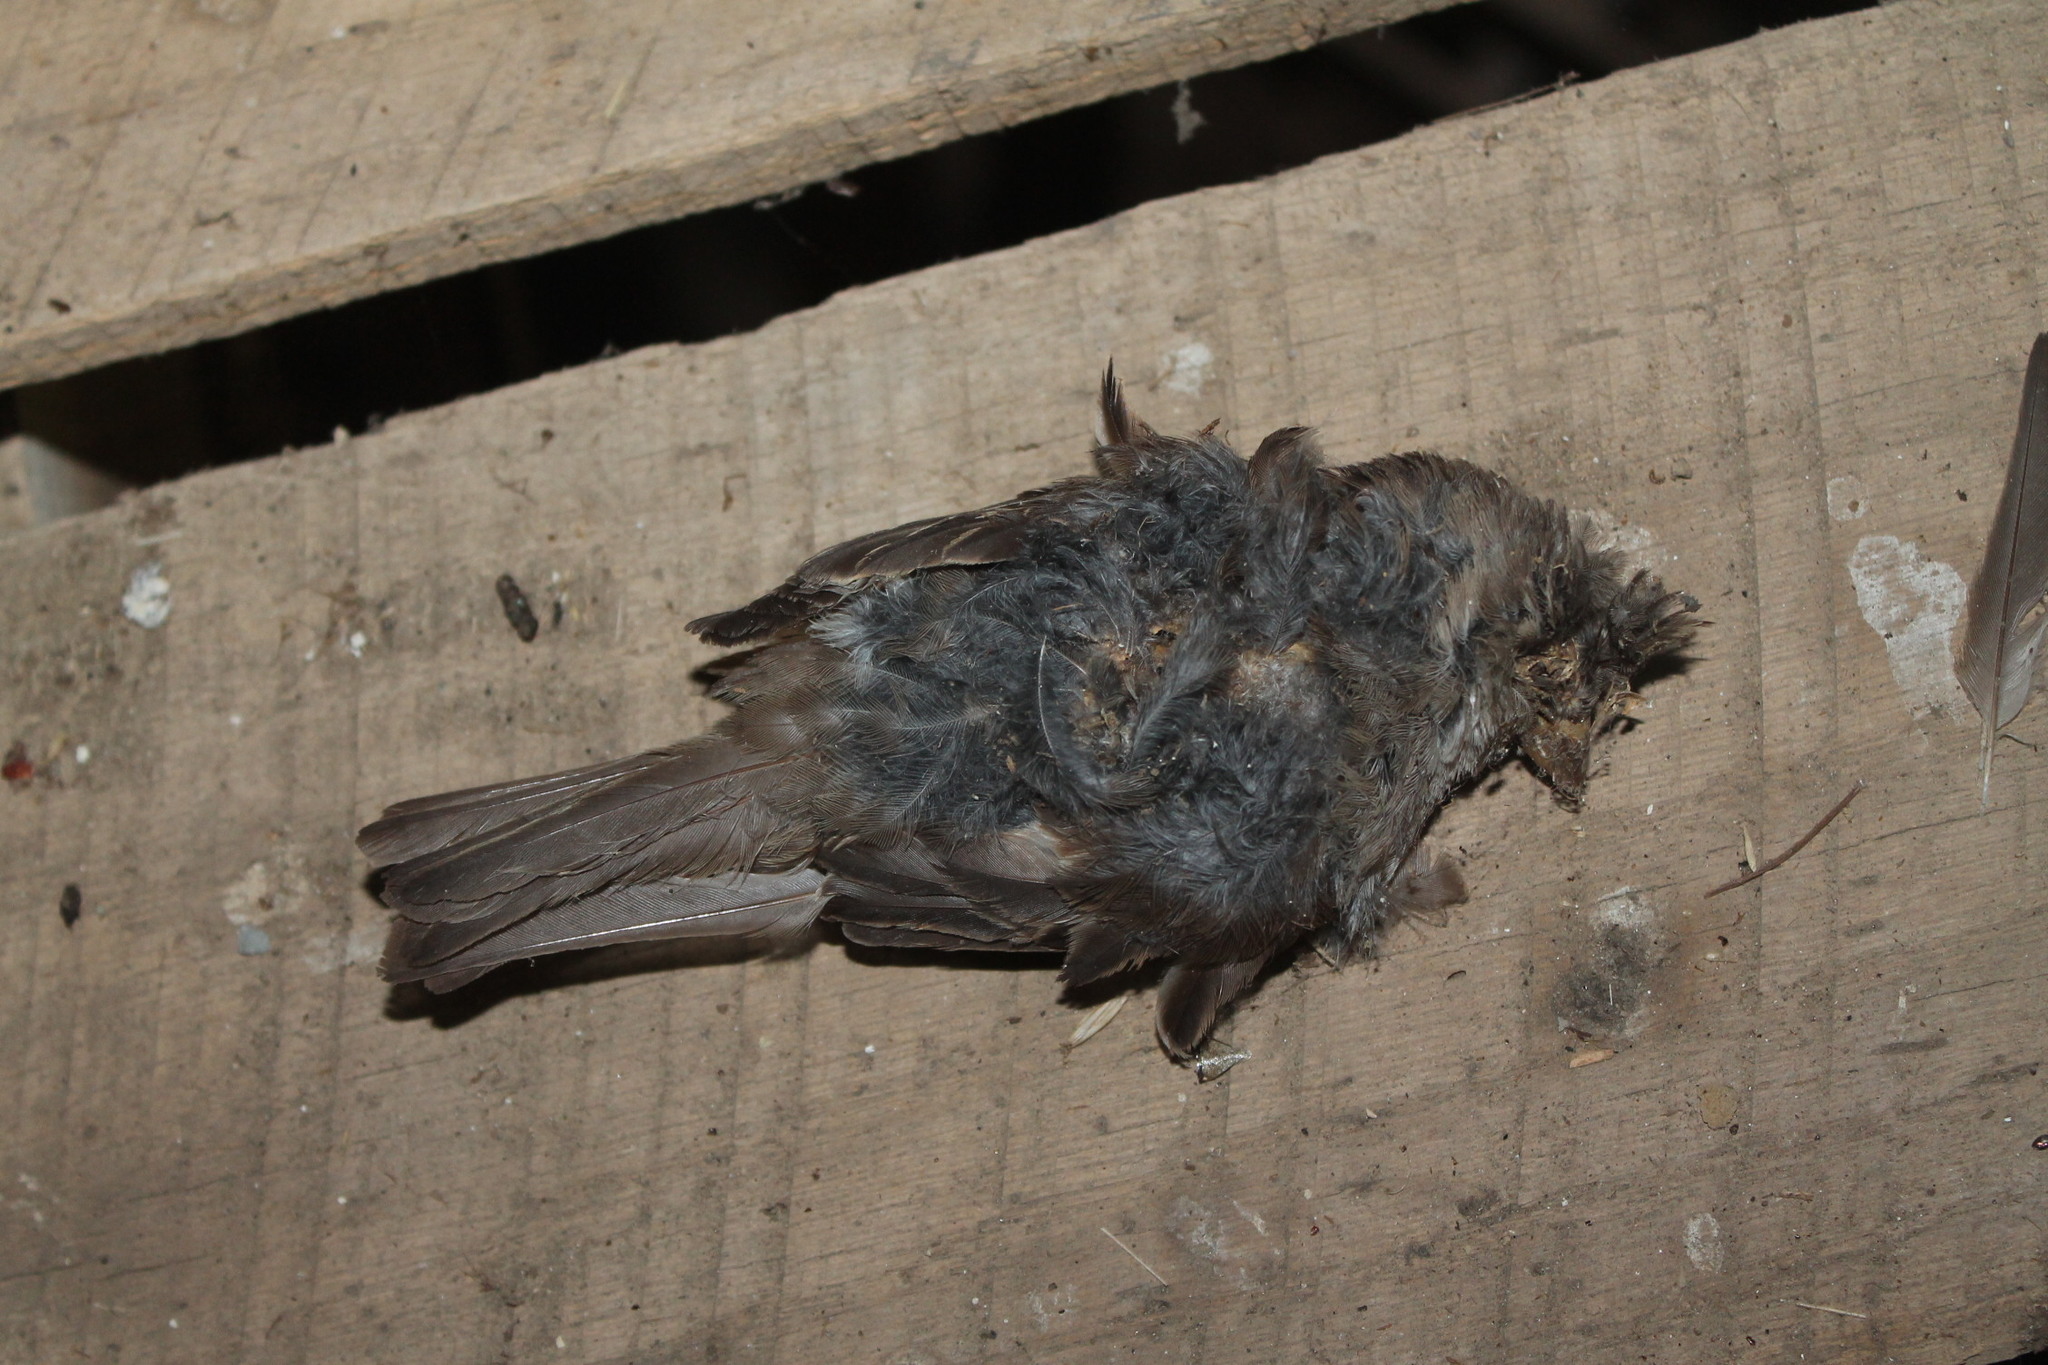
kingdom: Animalia
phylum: Chordata
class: Aves
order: Passeriformes
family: Passeridae
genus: Passer
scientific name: Passer domesticus
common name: House sparrow
